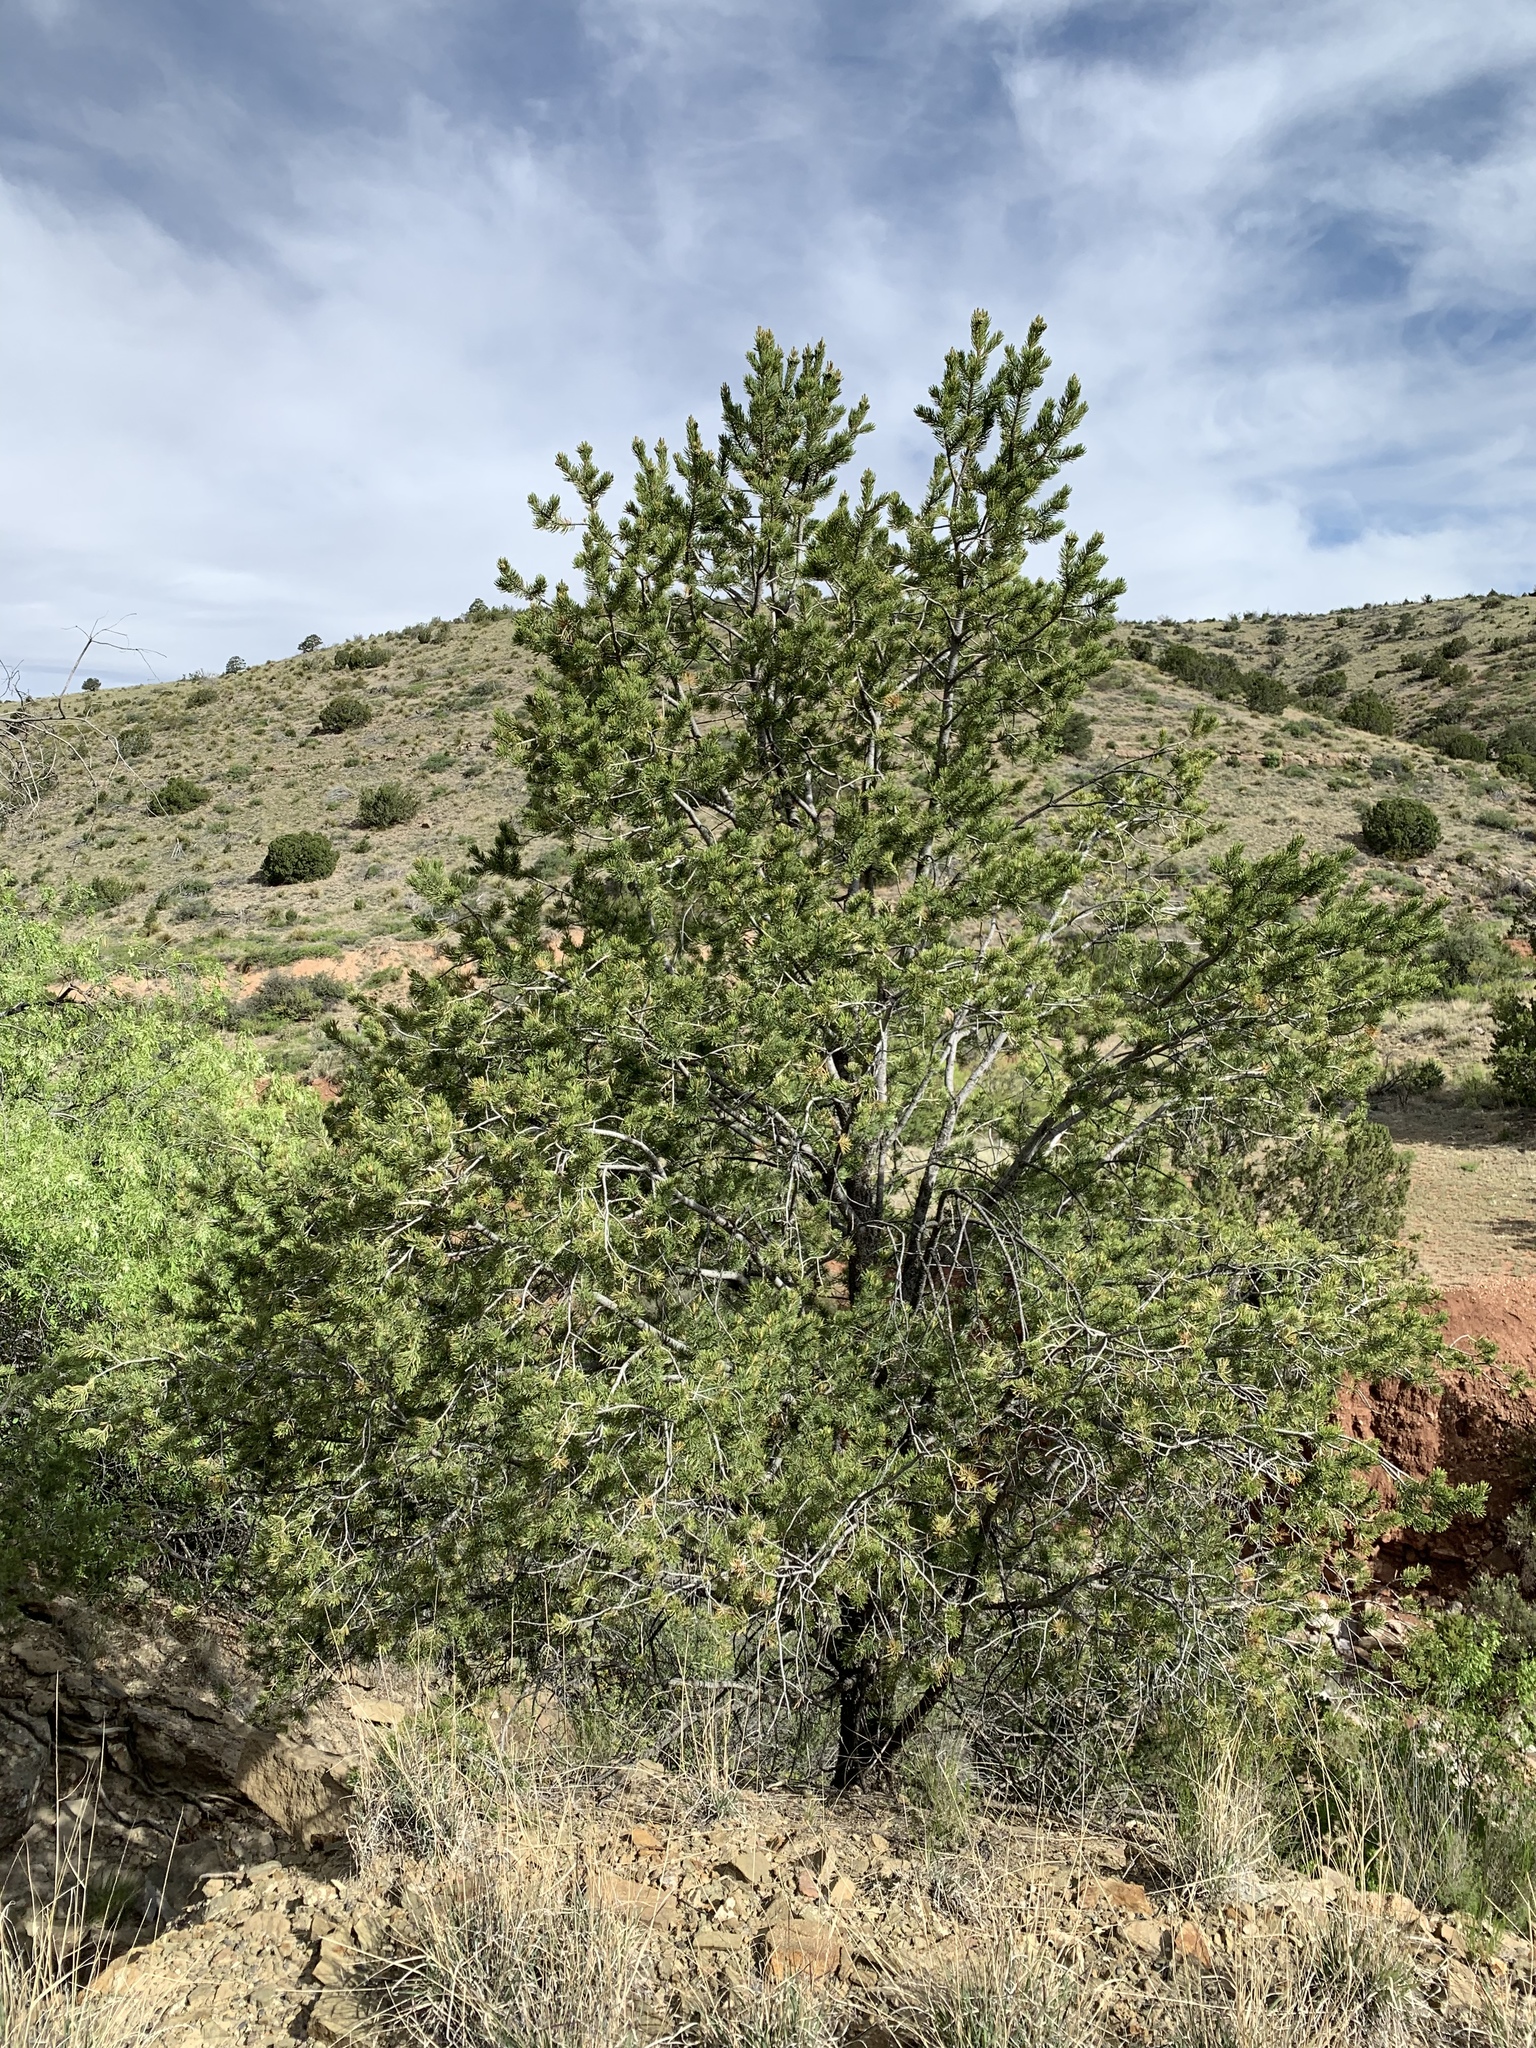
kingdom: Plantae
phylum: Tracheophyta
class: Pinopsida
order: Pinales
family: Pinaceae
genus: Pinus
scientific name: Pinus edulis
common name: Colorado pinyon
